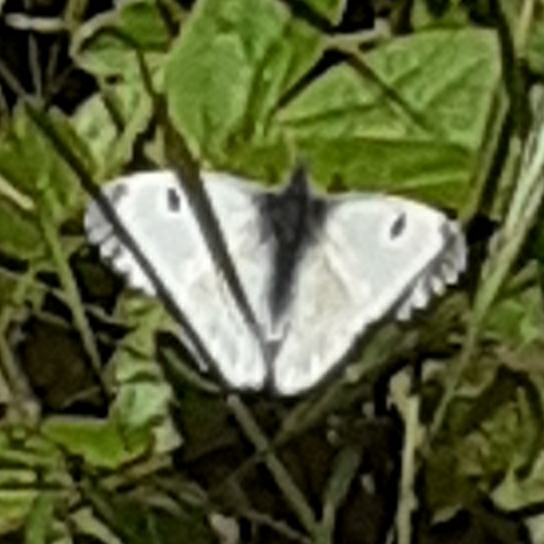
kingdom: Animalia
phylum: Arthropoda
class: Insecta
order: Lepidoptera
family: Pieridae
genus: Anthocharis
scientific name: Anthocharis cardamines
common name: Orange-tip
